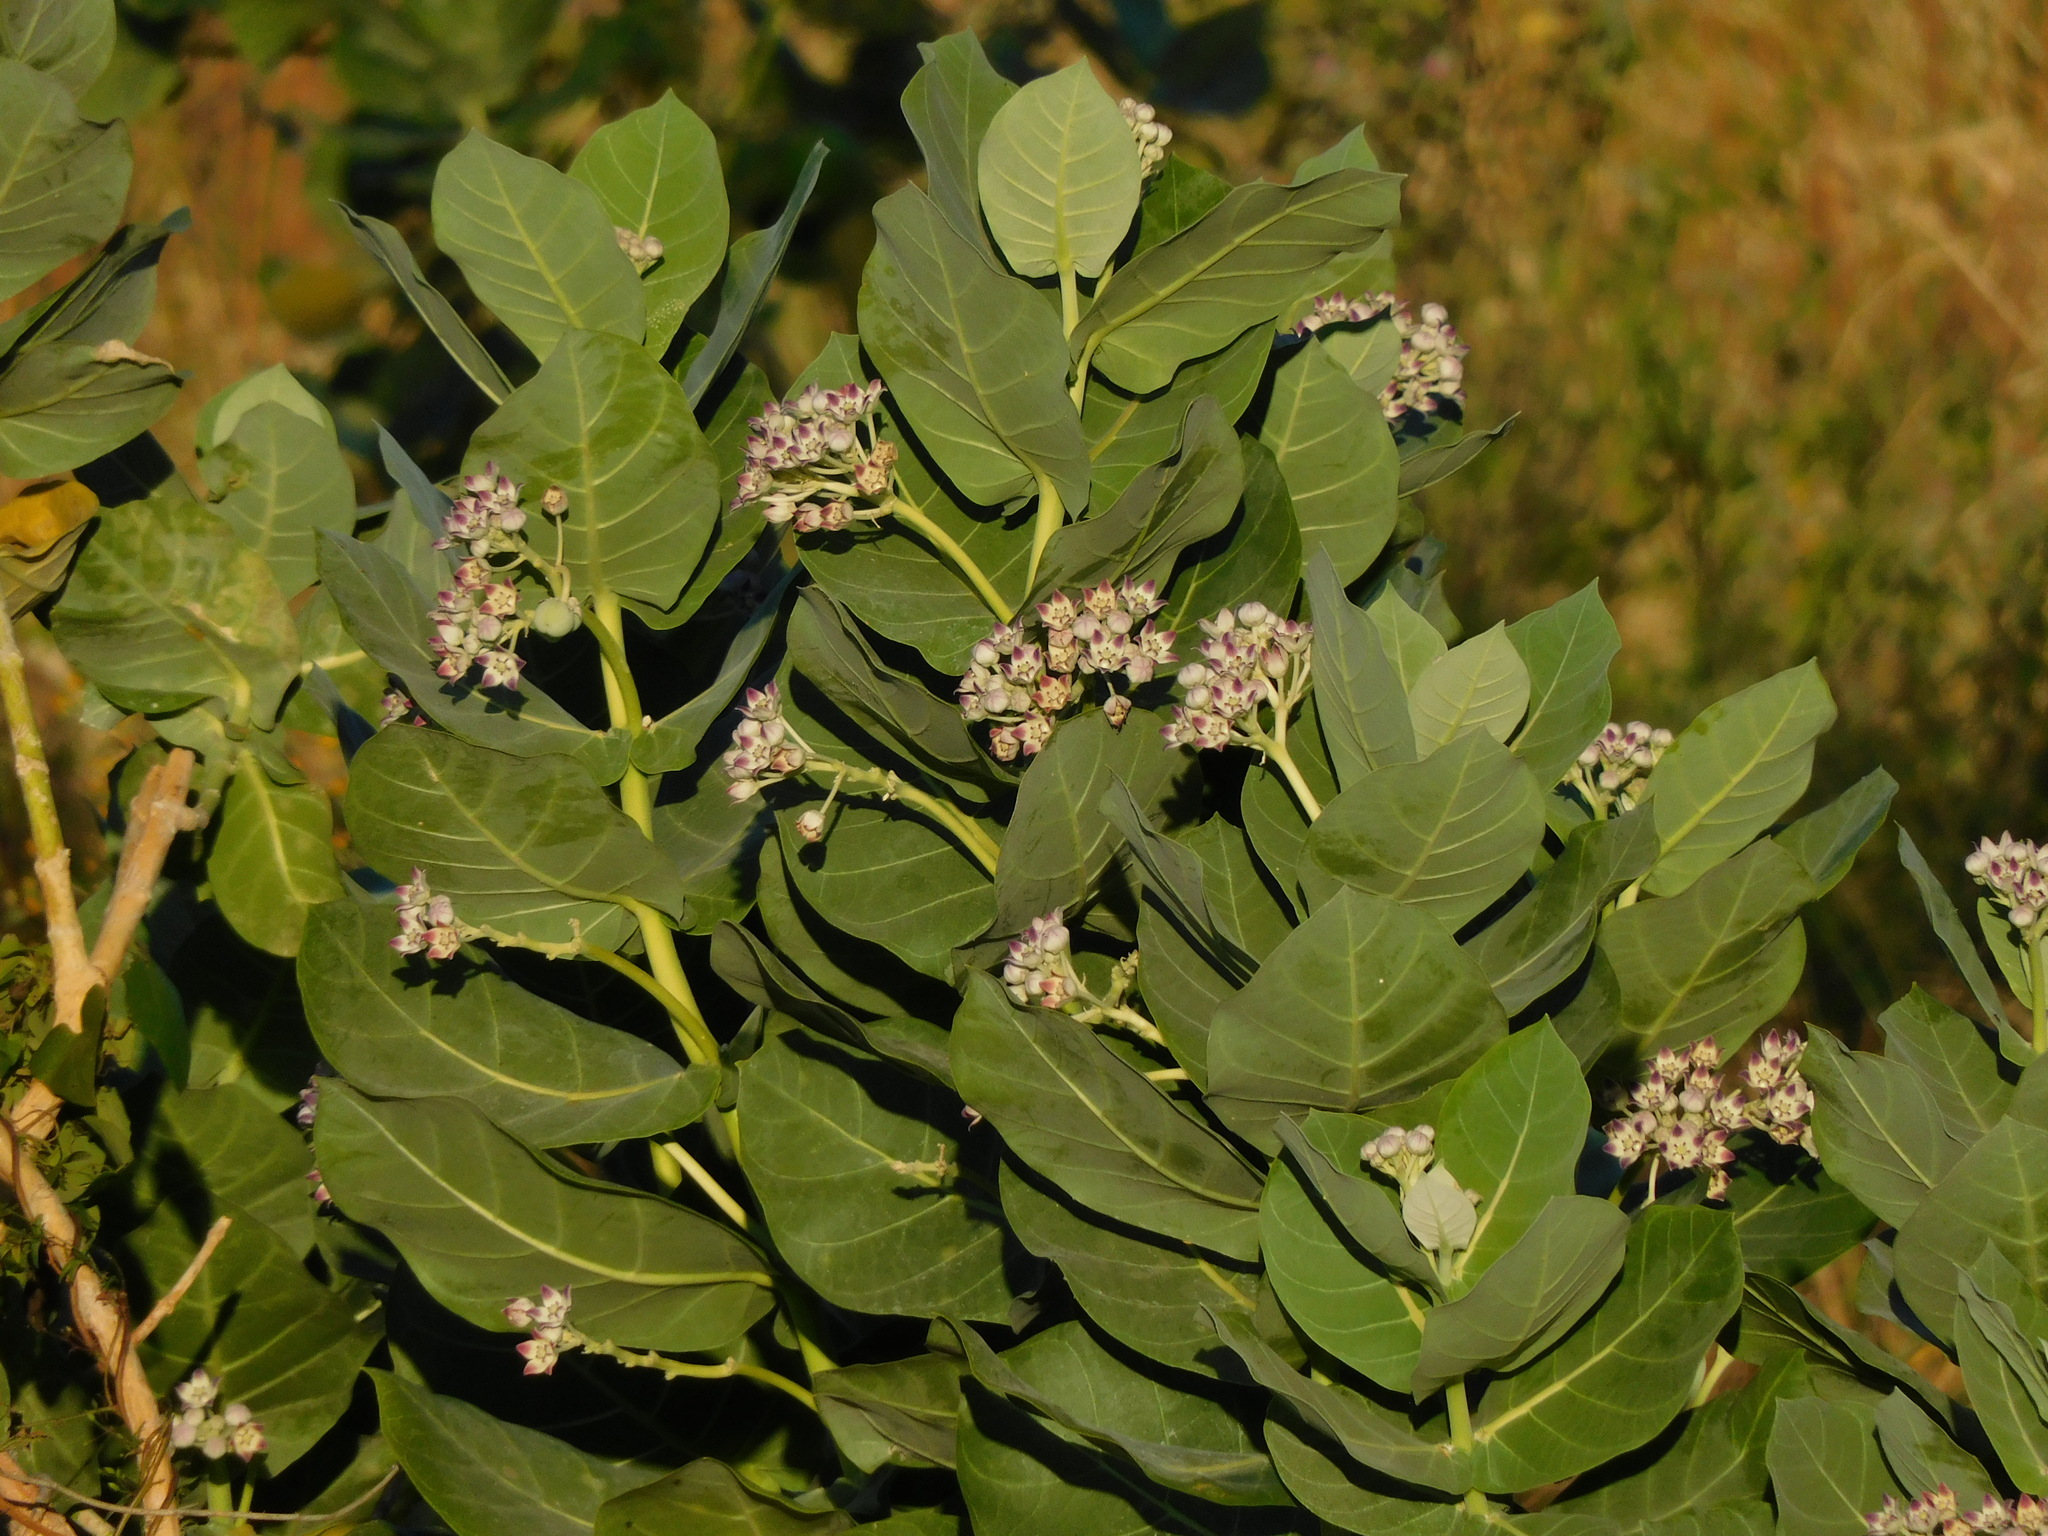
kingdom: Plantae
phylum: Tracheophyta
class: Magnoliopsida
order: Gentianales
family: Apocynaceae
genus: Calotropis
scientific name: Calotropis procera
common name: Roostertree
